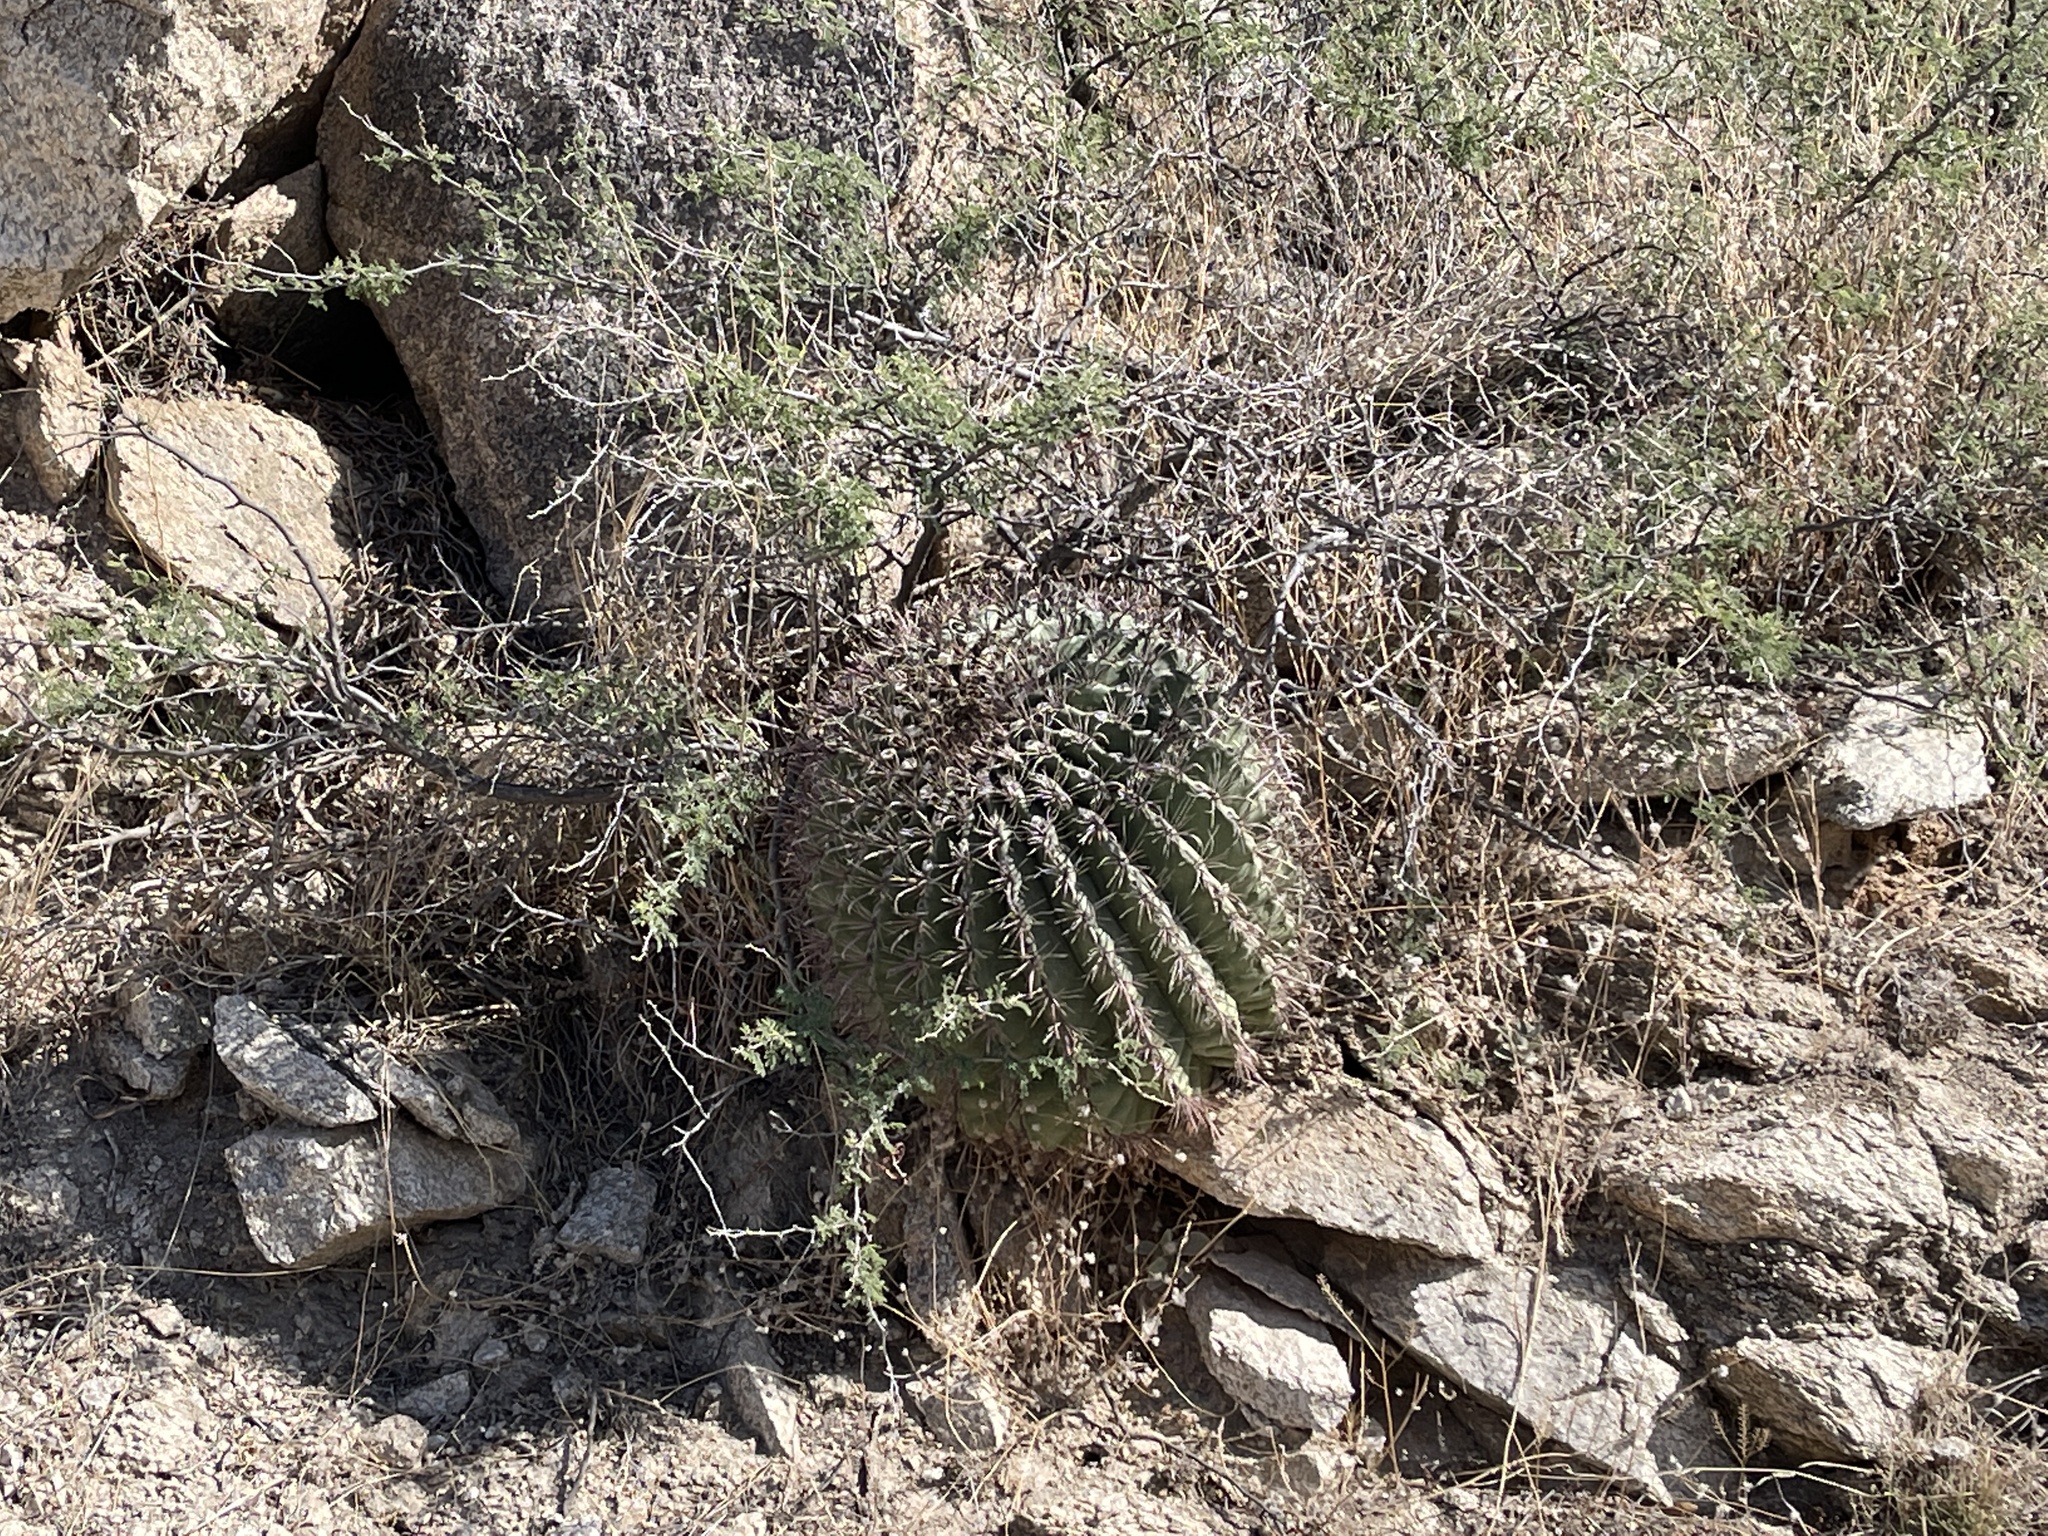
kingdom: Plantae
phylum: Tracheophyta
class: Magnoliopsida
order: Caryophyllales
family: Cactaceae
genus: Ferocactus
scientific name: Ferocactus wislizeni
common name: Candy barrel cactus
